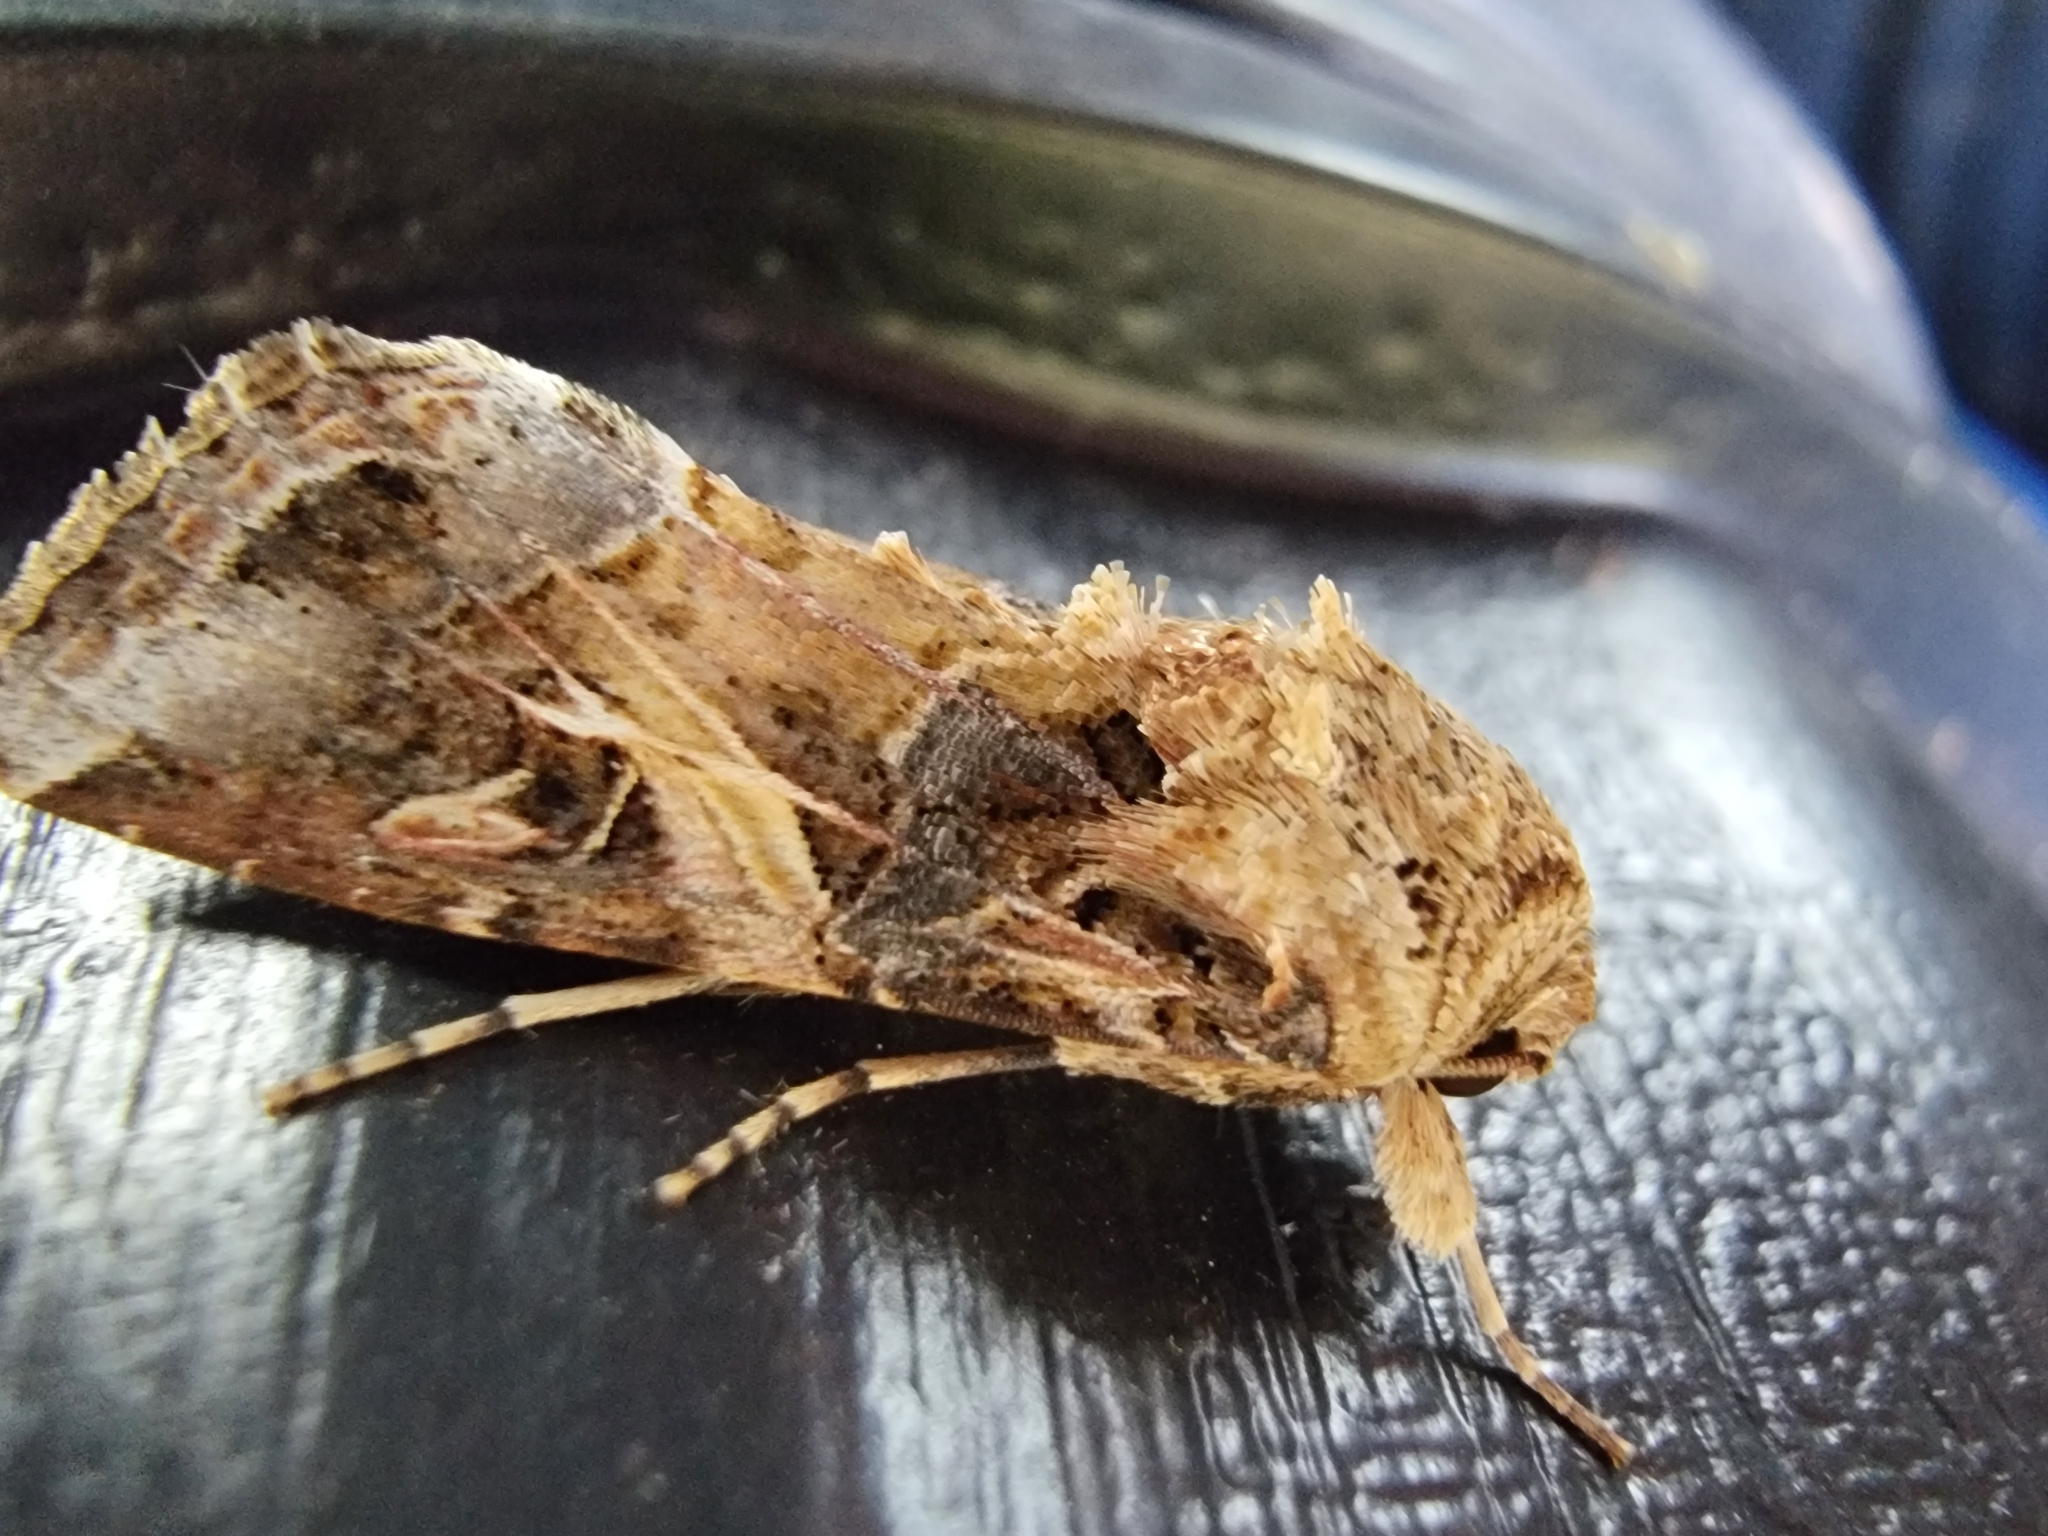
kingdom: Animalia
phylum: Arthropoda
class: Insecta
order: Lepidoptera
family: Noctuidae
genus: Spodoptera
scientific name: Spodoptera ornithogalli
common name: Yellow-striped armyworm
